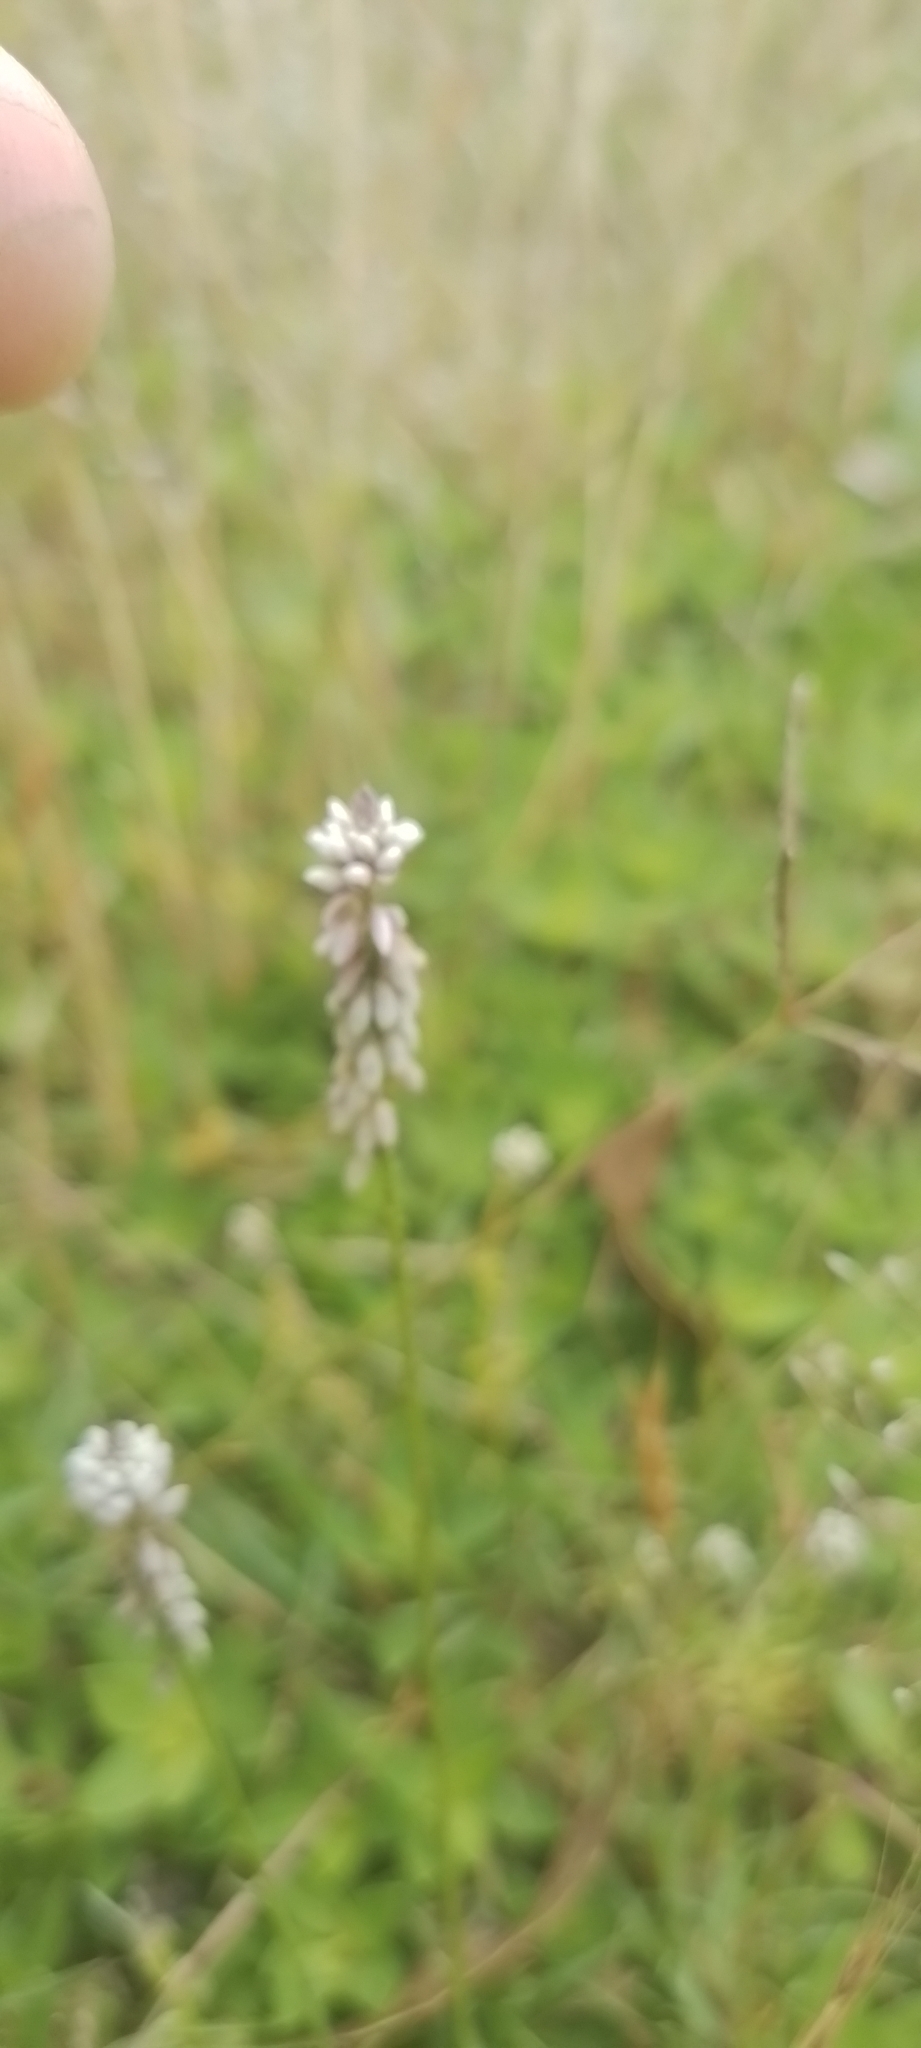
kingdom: Plantae
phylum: Tracheophyta
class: Magnoliopsida
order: Fabales
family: Polygalaceae
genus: Polygala
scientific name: Polygala linoides
